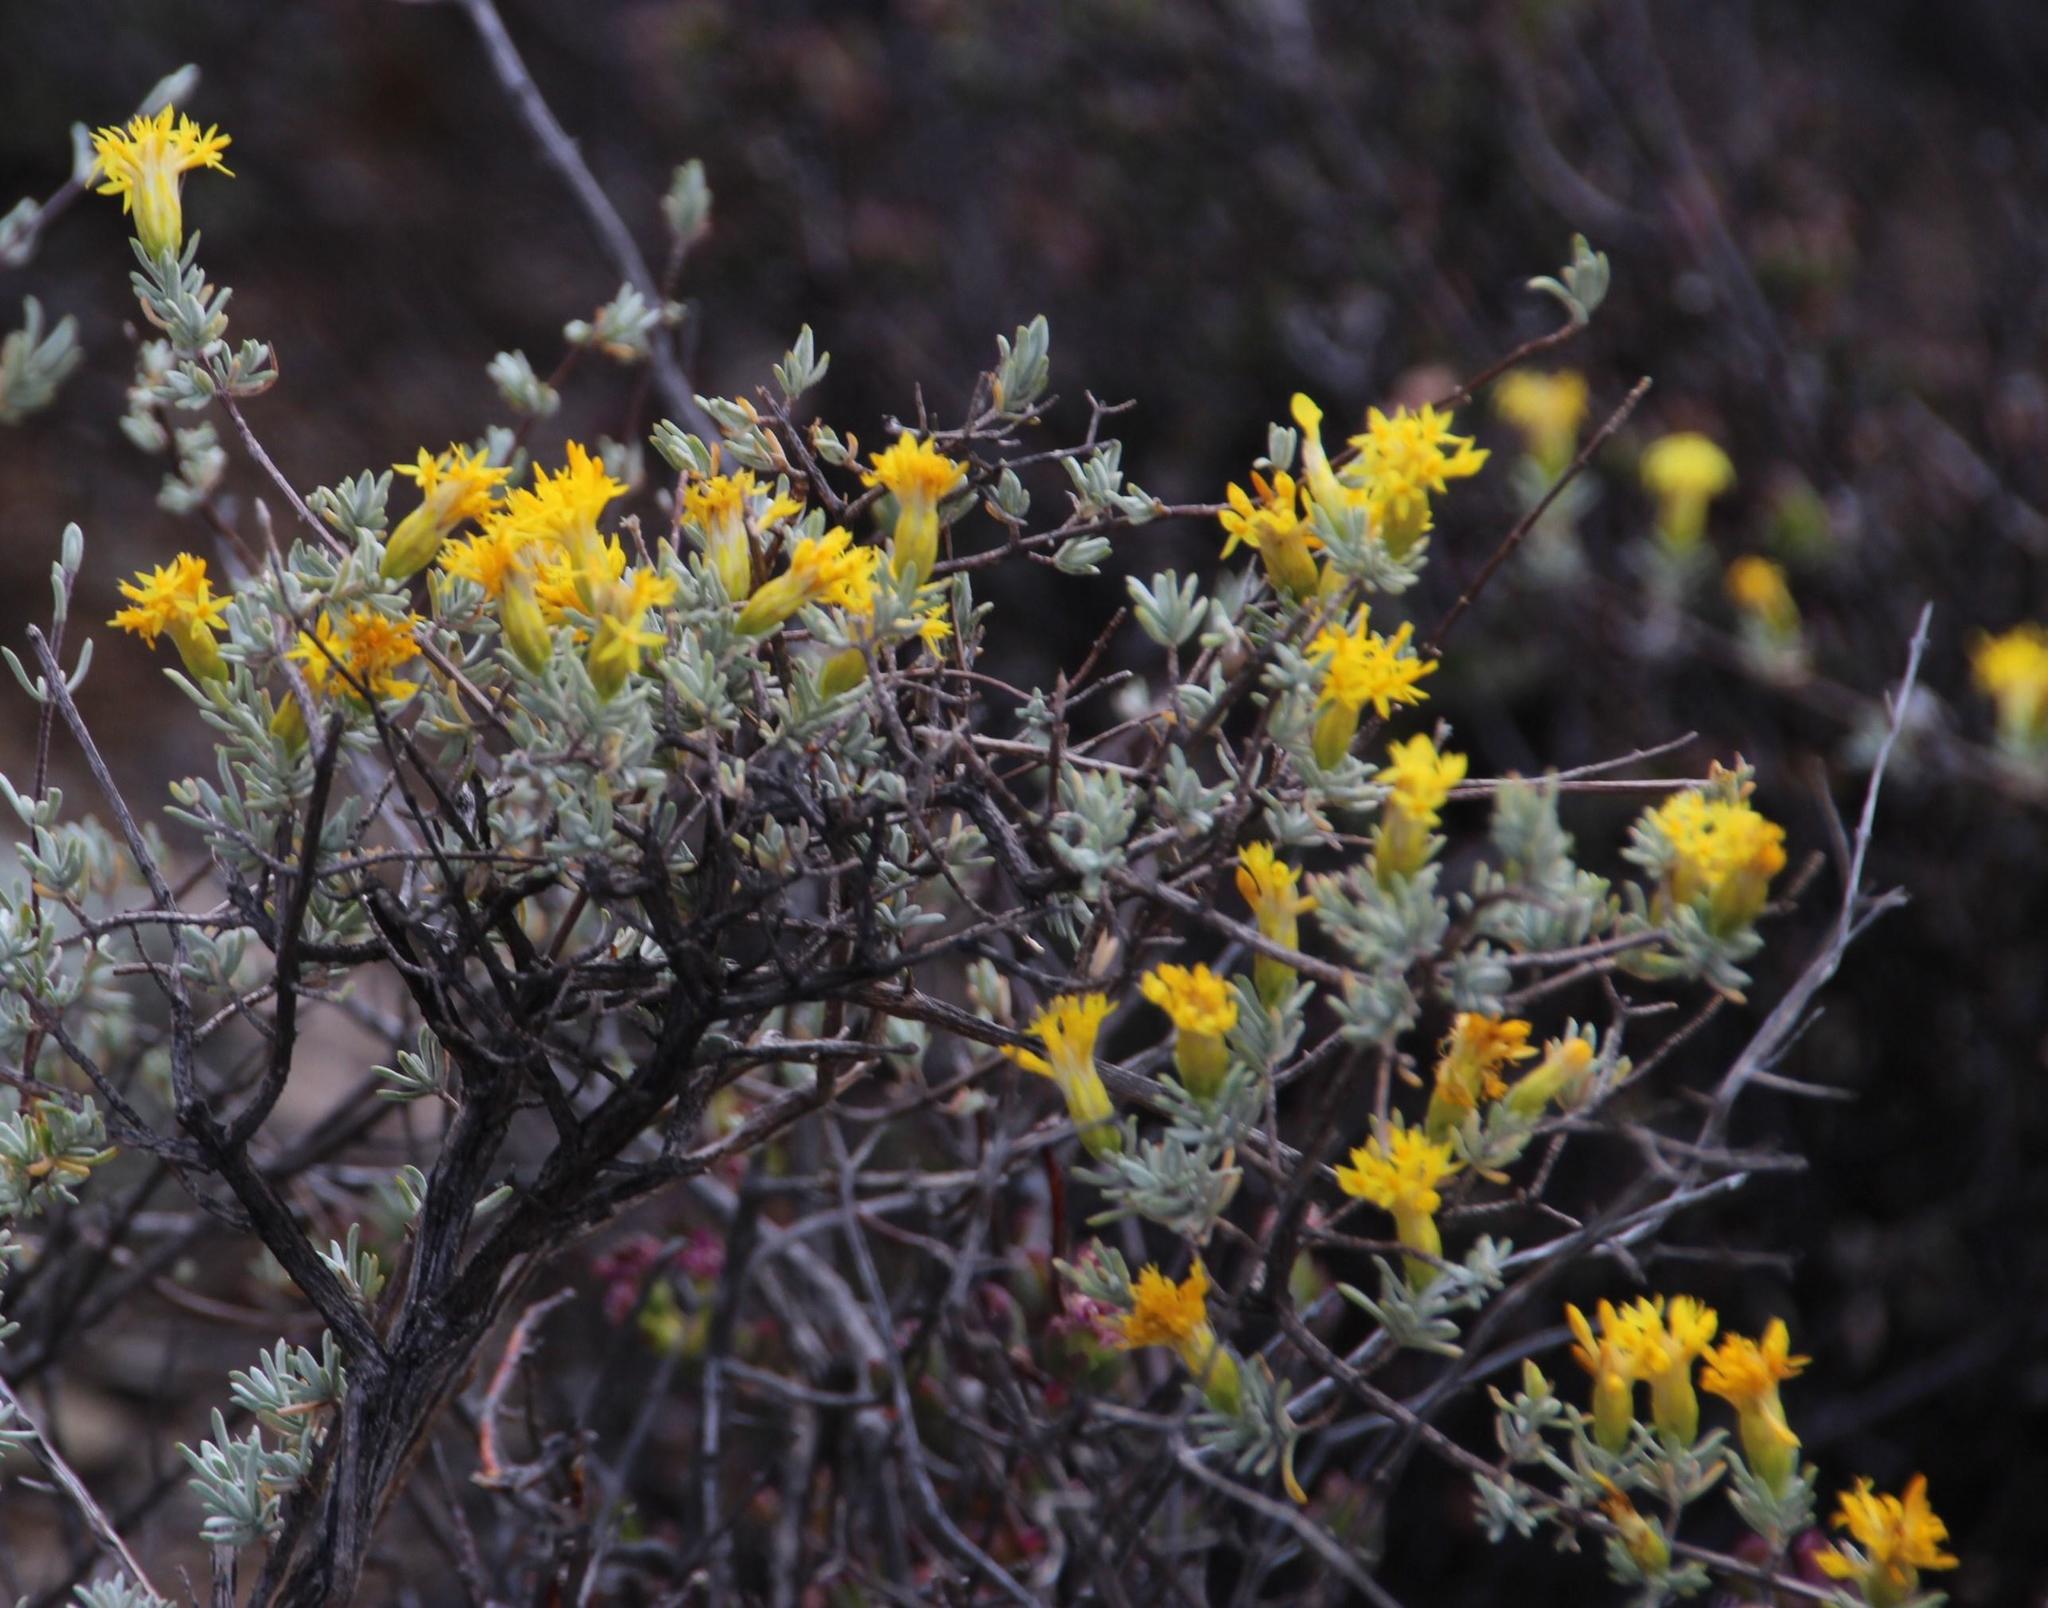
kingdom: Plantae
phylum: Tracheophyta
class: Magnoliopsida
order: Asterales
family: Asteraceae
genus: Pteronia
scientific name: Pteronia incana
